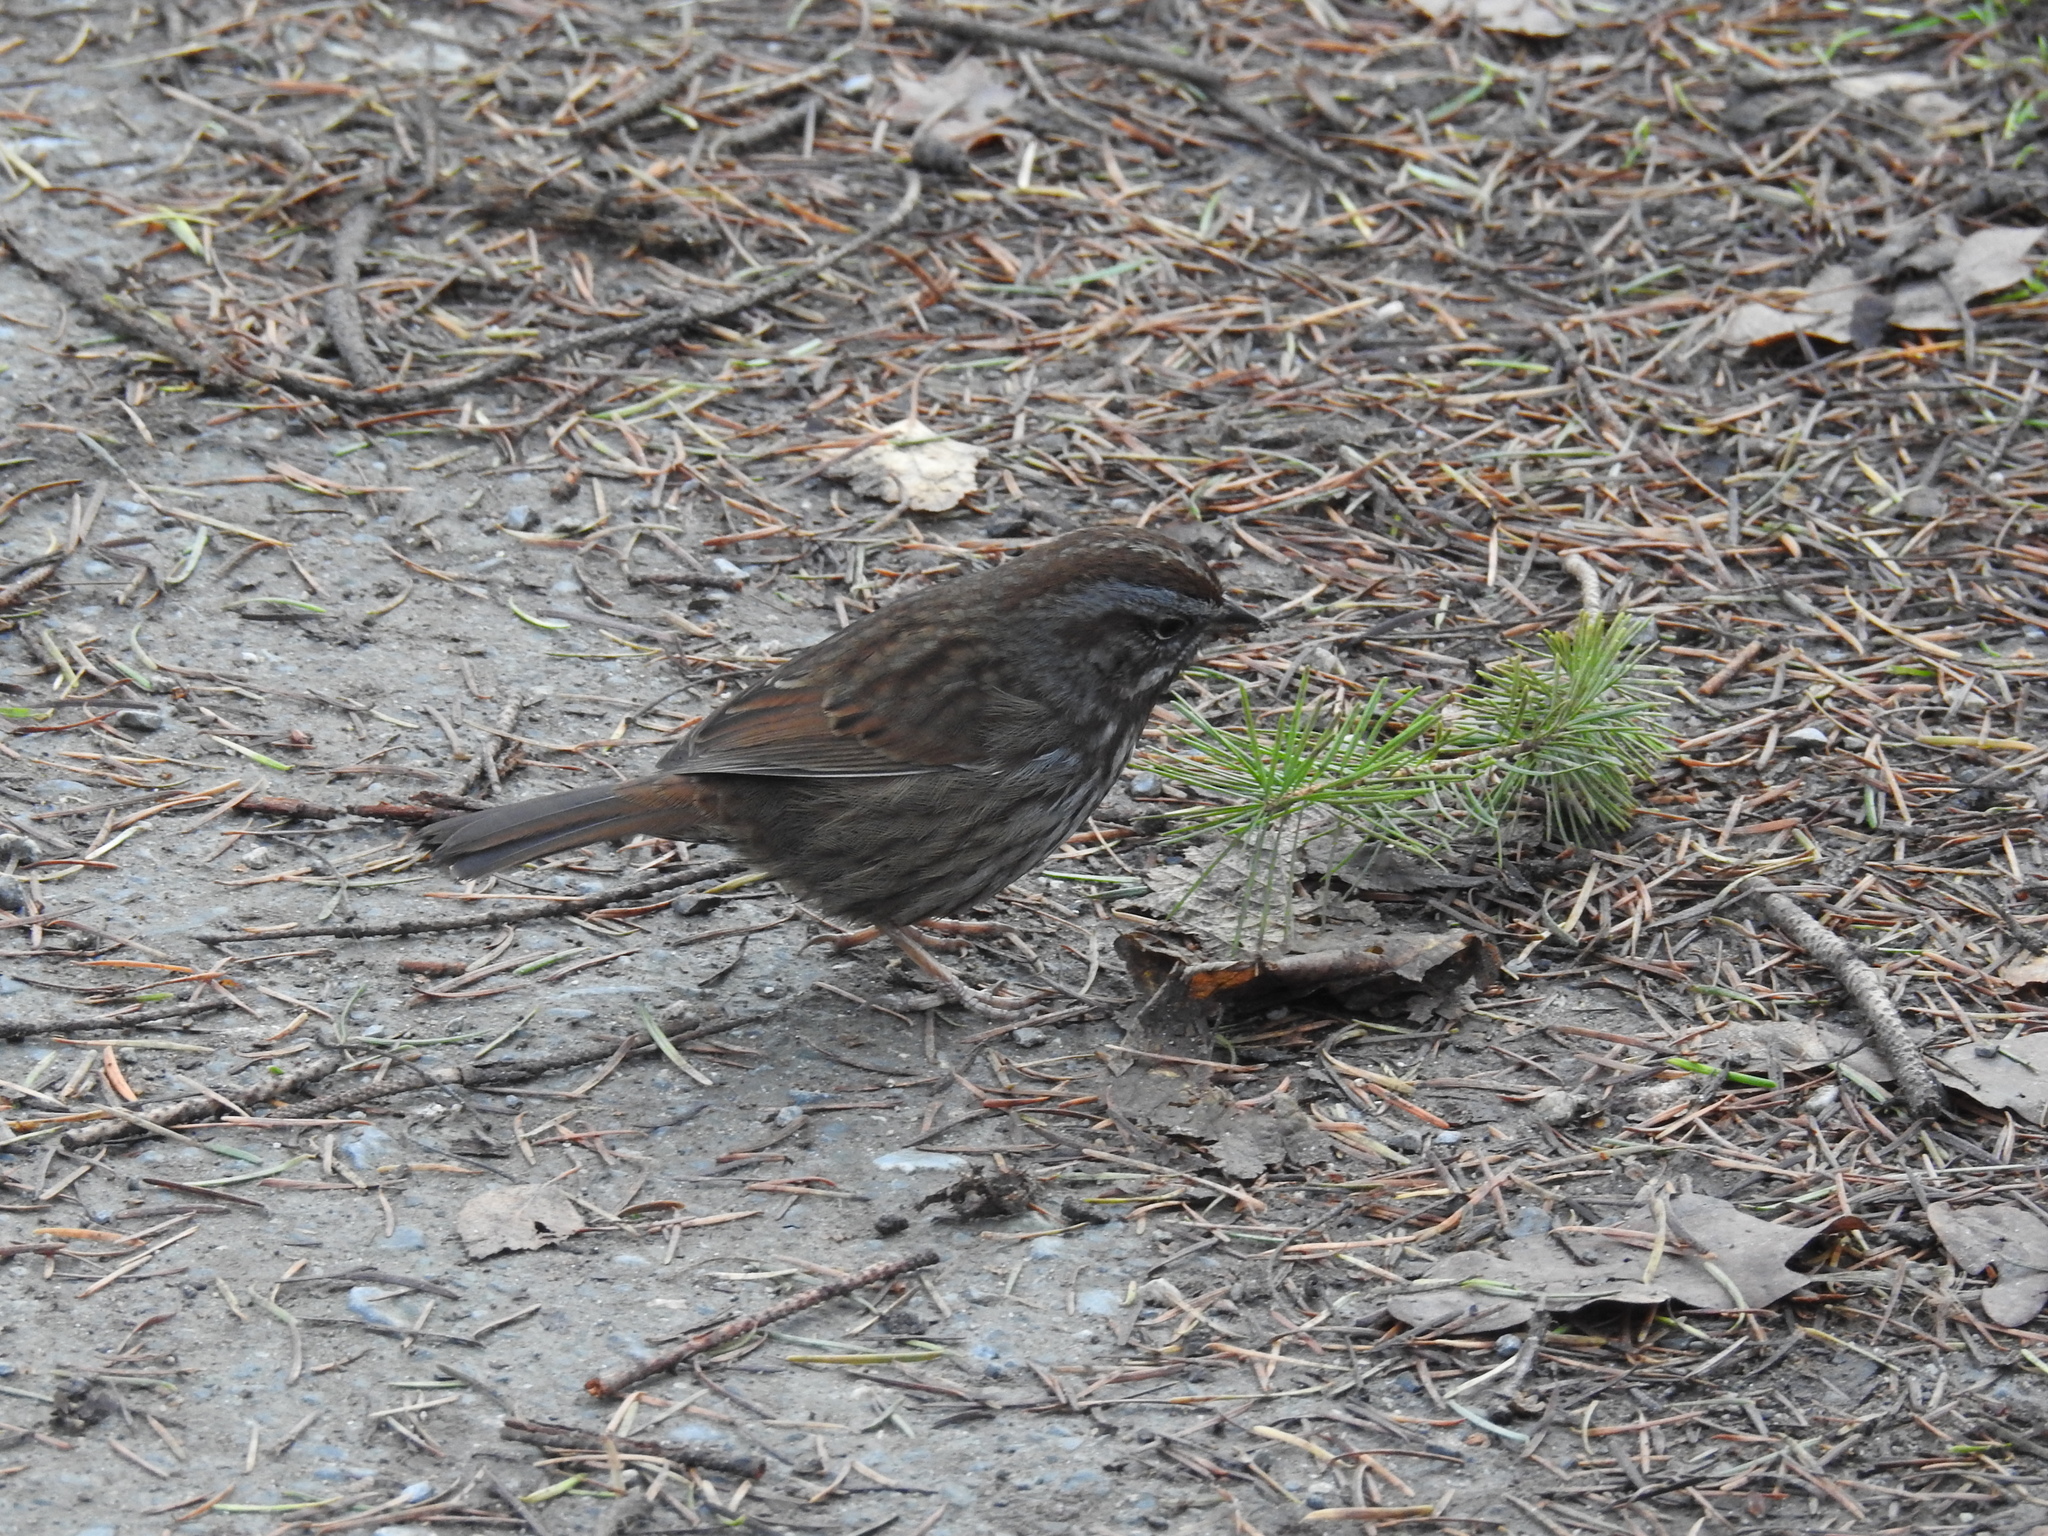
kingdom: Animalia
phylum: Chordata
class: Aves
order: Passeriformes
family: Passerellidae
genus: Melospiza
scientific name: Melospiza melodia
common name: Song sparrow
